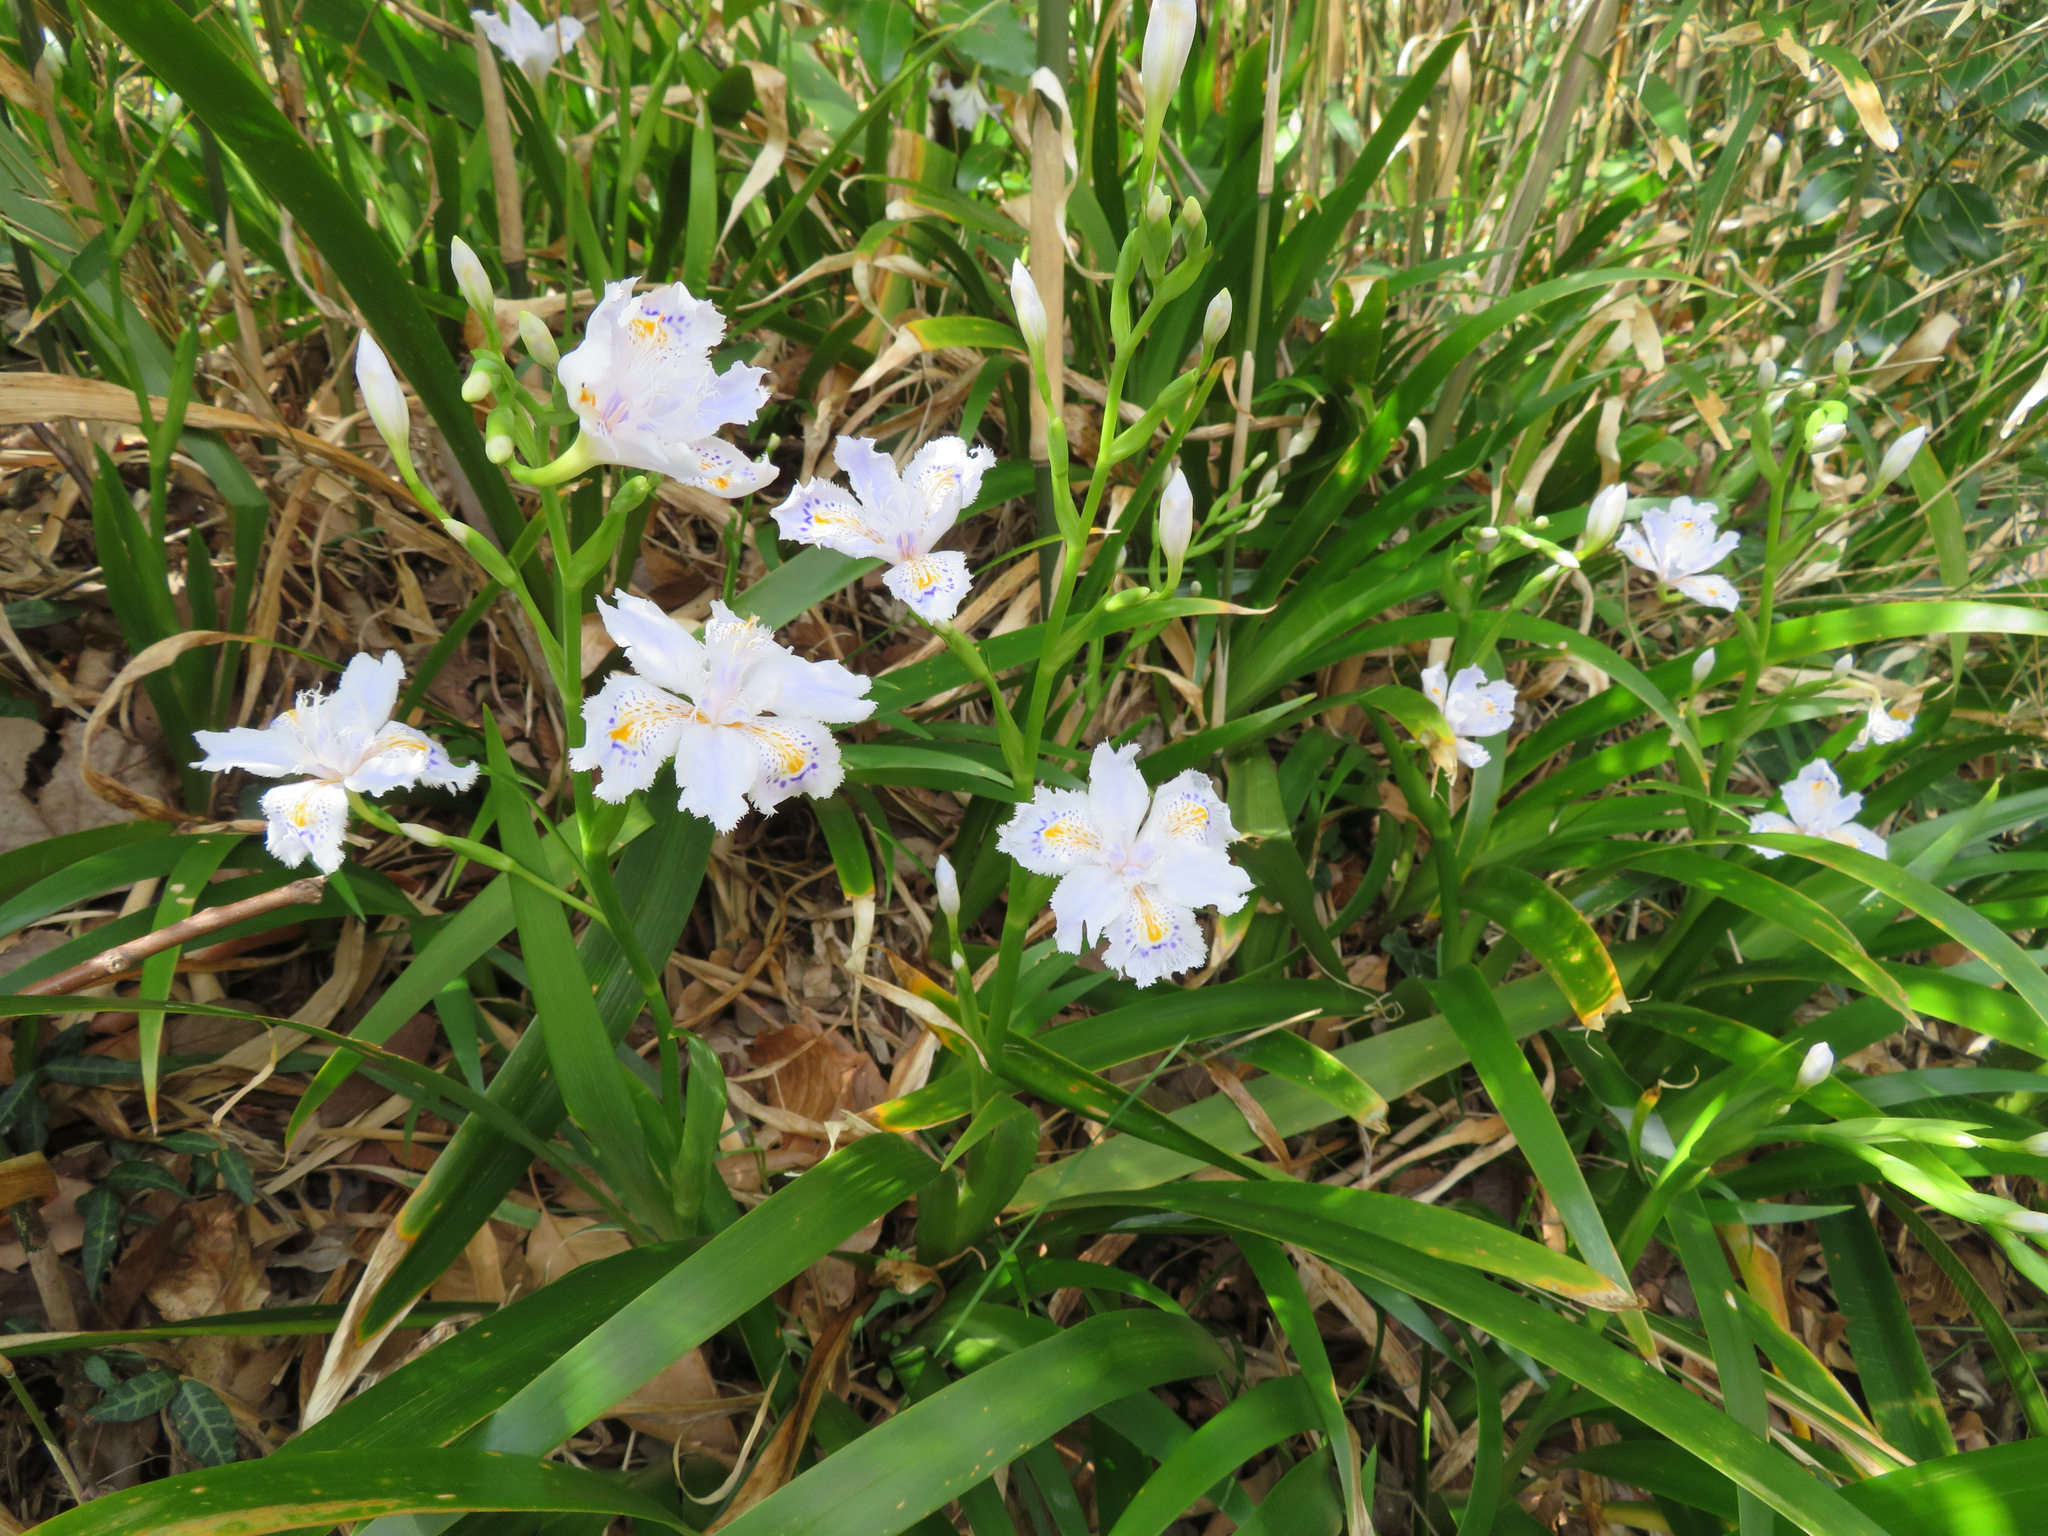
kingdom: Plantae
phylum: Tracheophyta
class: Liliopsida
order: Asparagales
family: Iridaceae
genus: Iris
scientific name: Iris japonica
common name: Butterfly-flower
